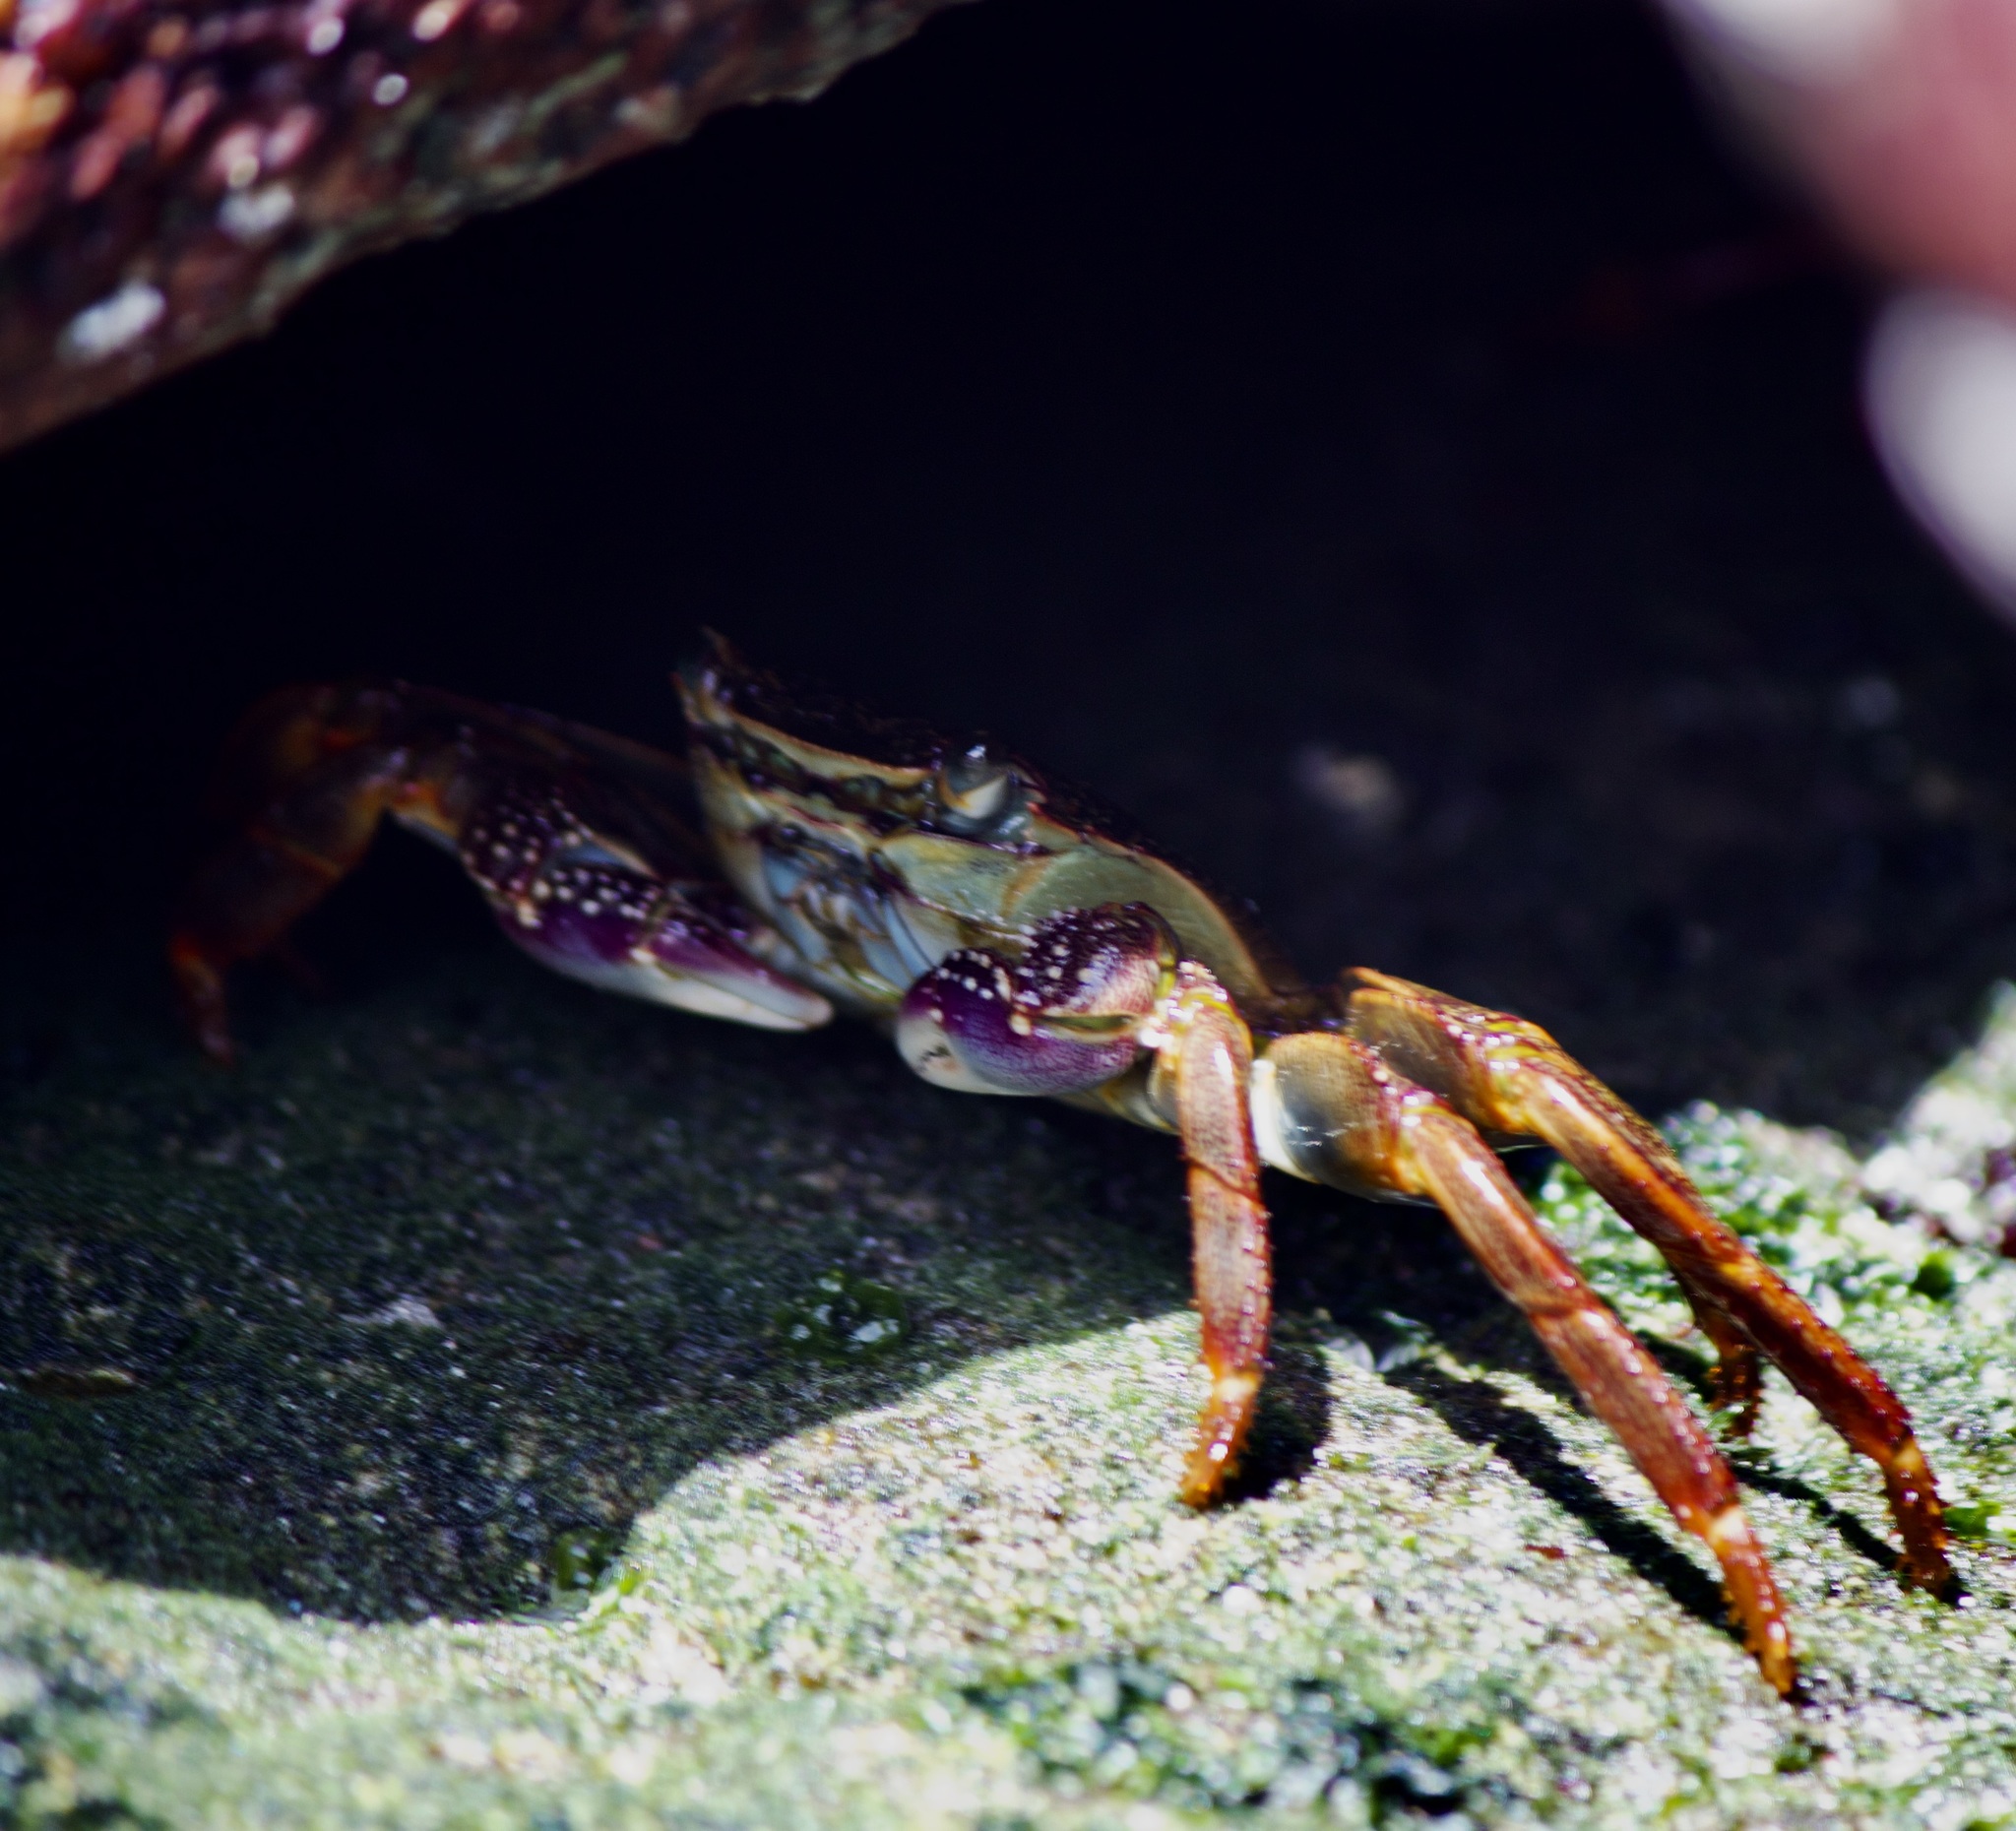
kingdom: Animalia
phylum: Arthropoda
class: Malacostraca
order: Decapoda
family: Grapsidae
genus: Leptograpsus
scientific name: Leptograpsus variegatus
